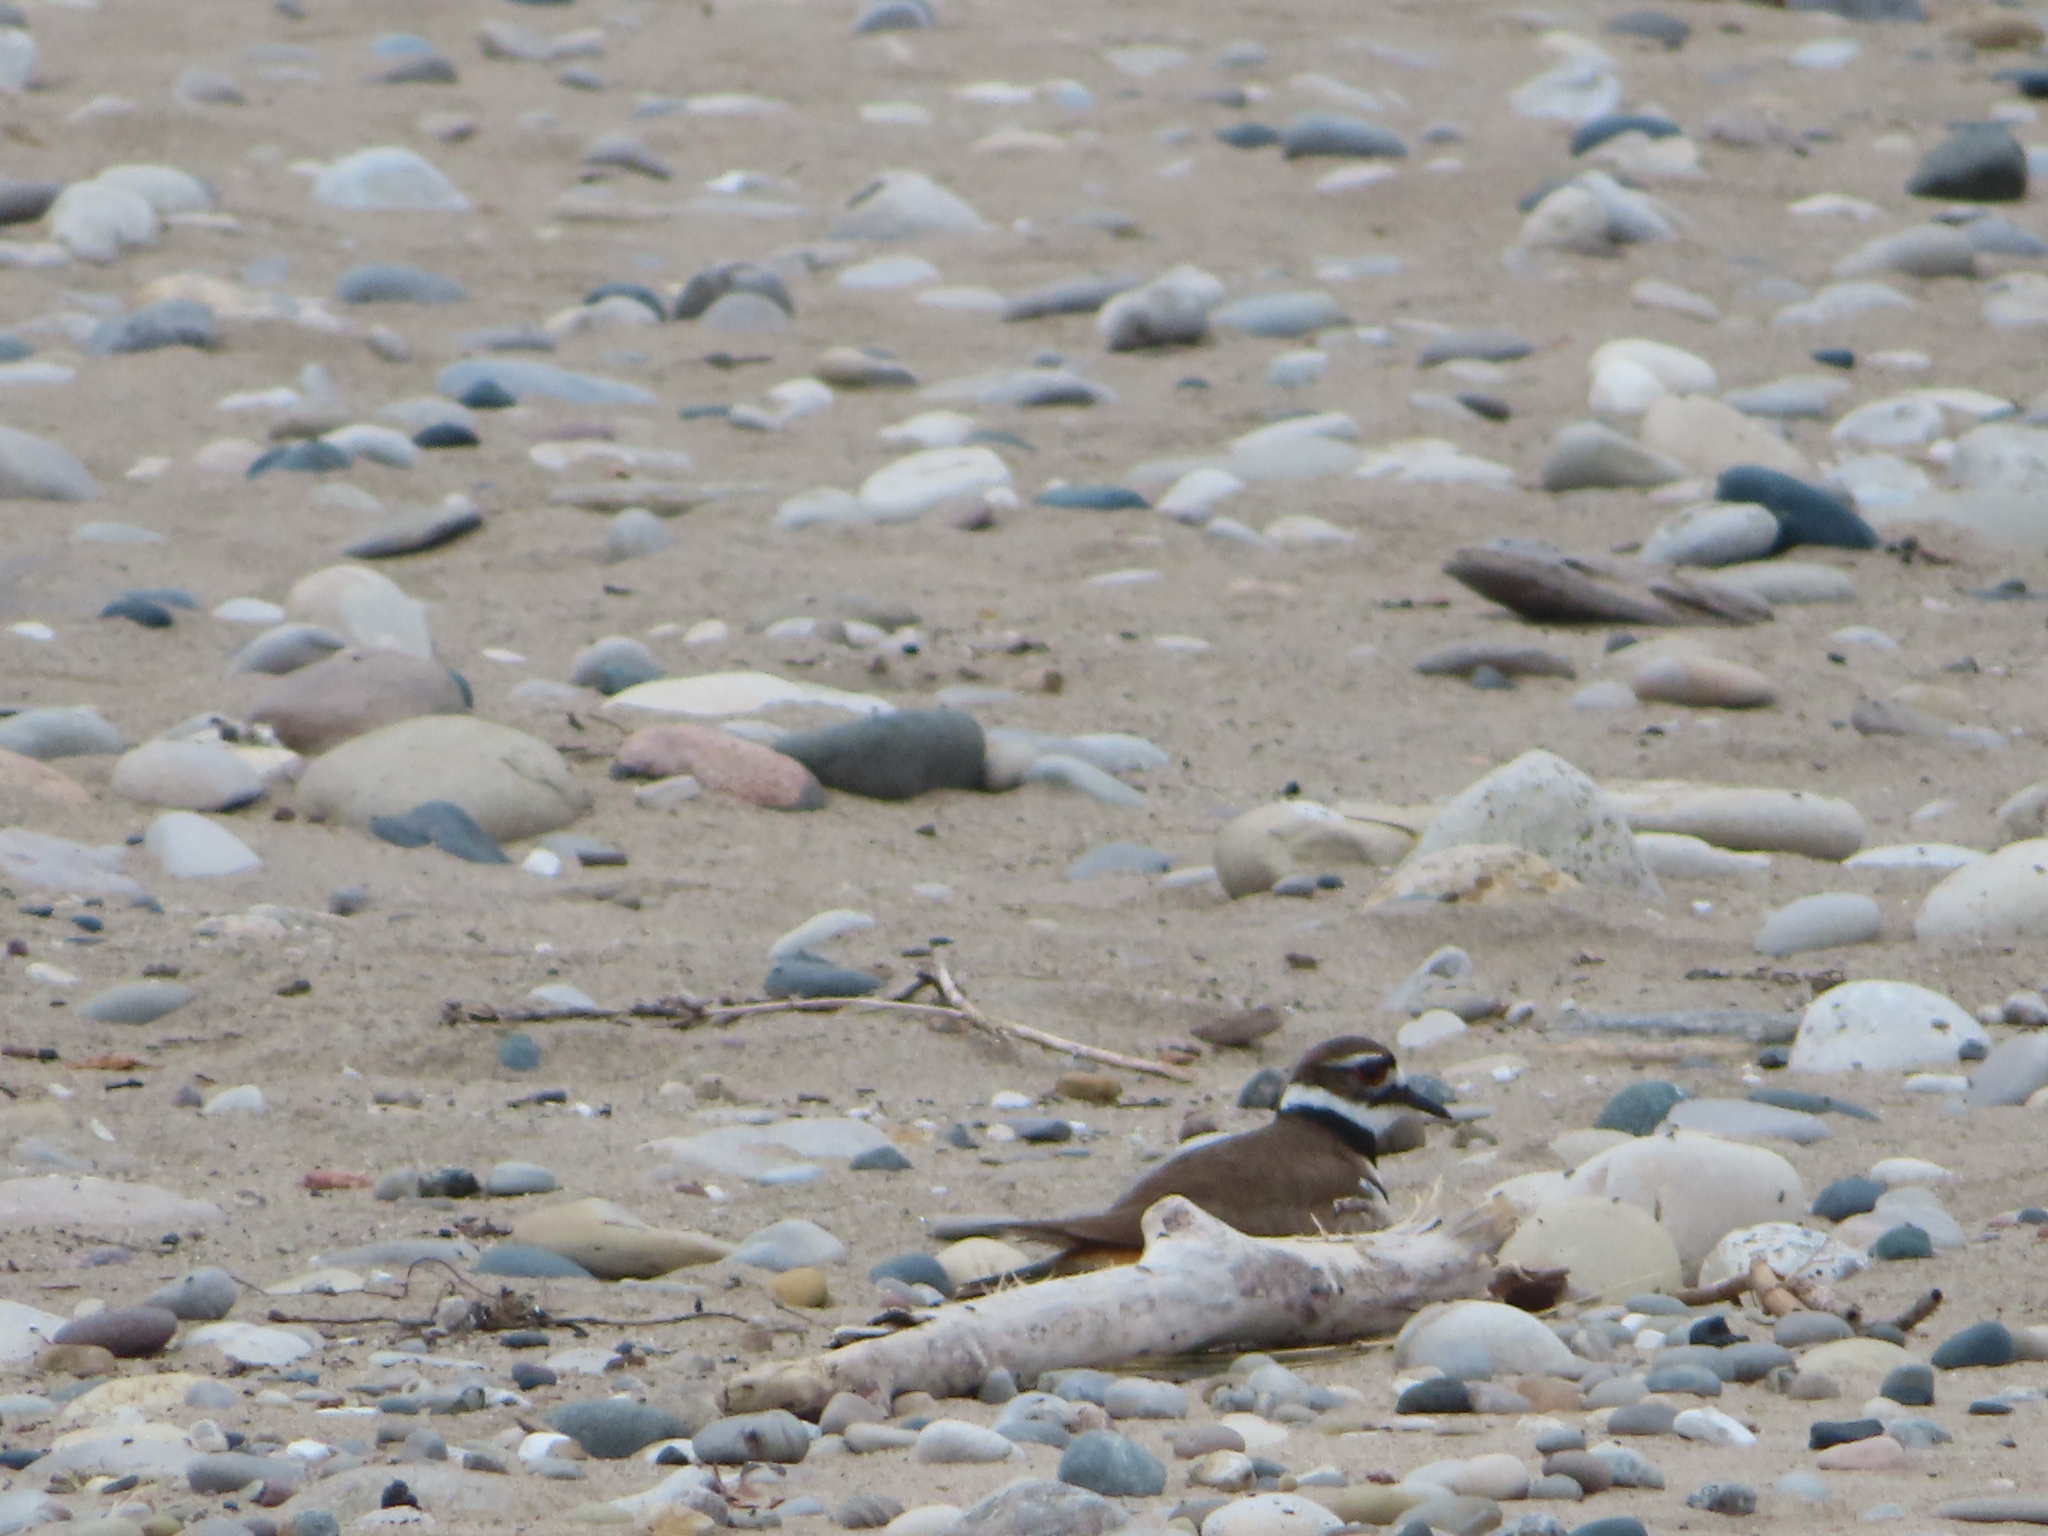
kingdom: Animalia
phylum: Chordata
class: Aves
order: Charadriiformes
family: Charadriidae
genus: Charadrius
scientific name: Charadrius vociferus
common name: Killdeer
